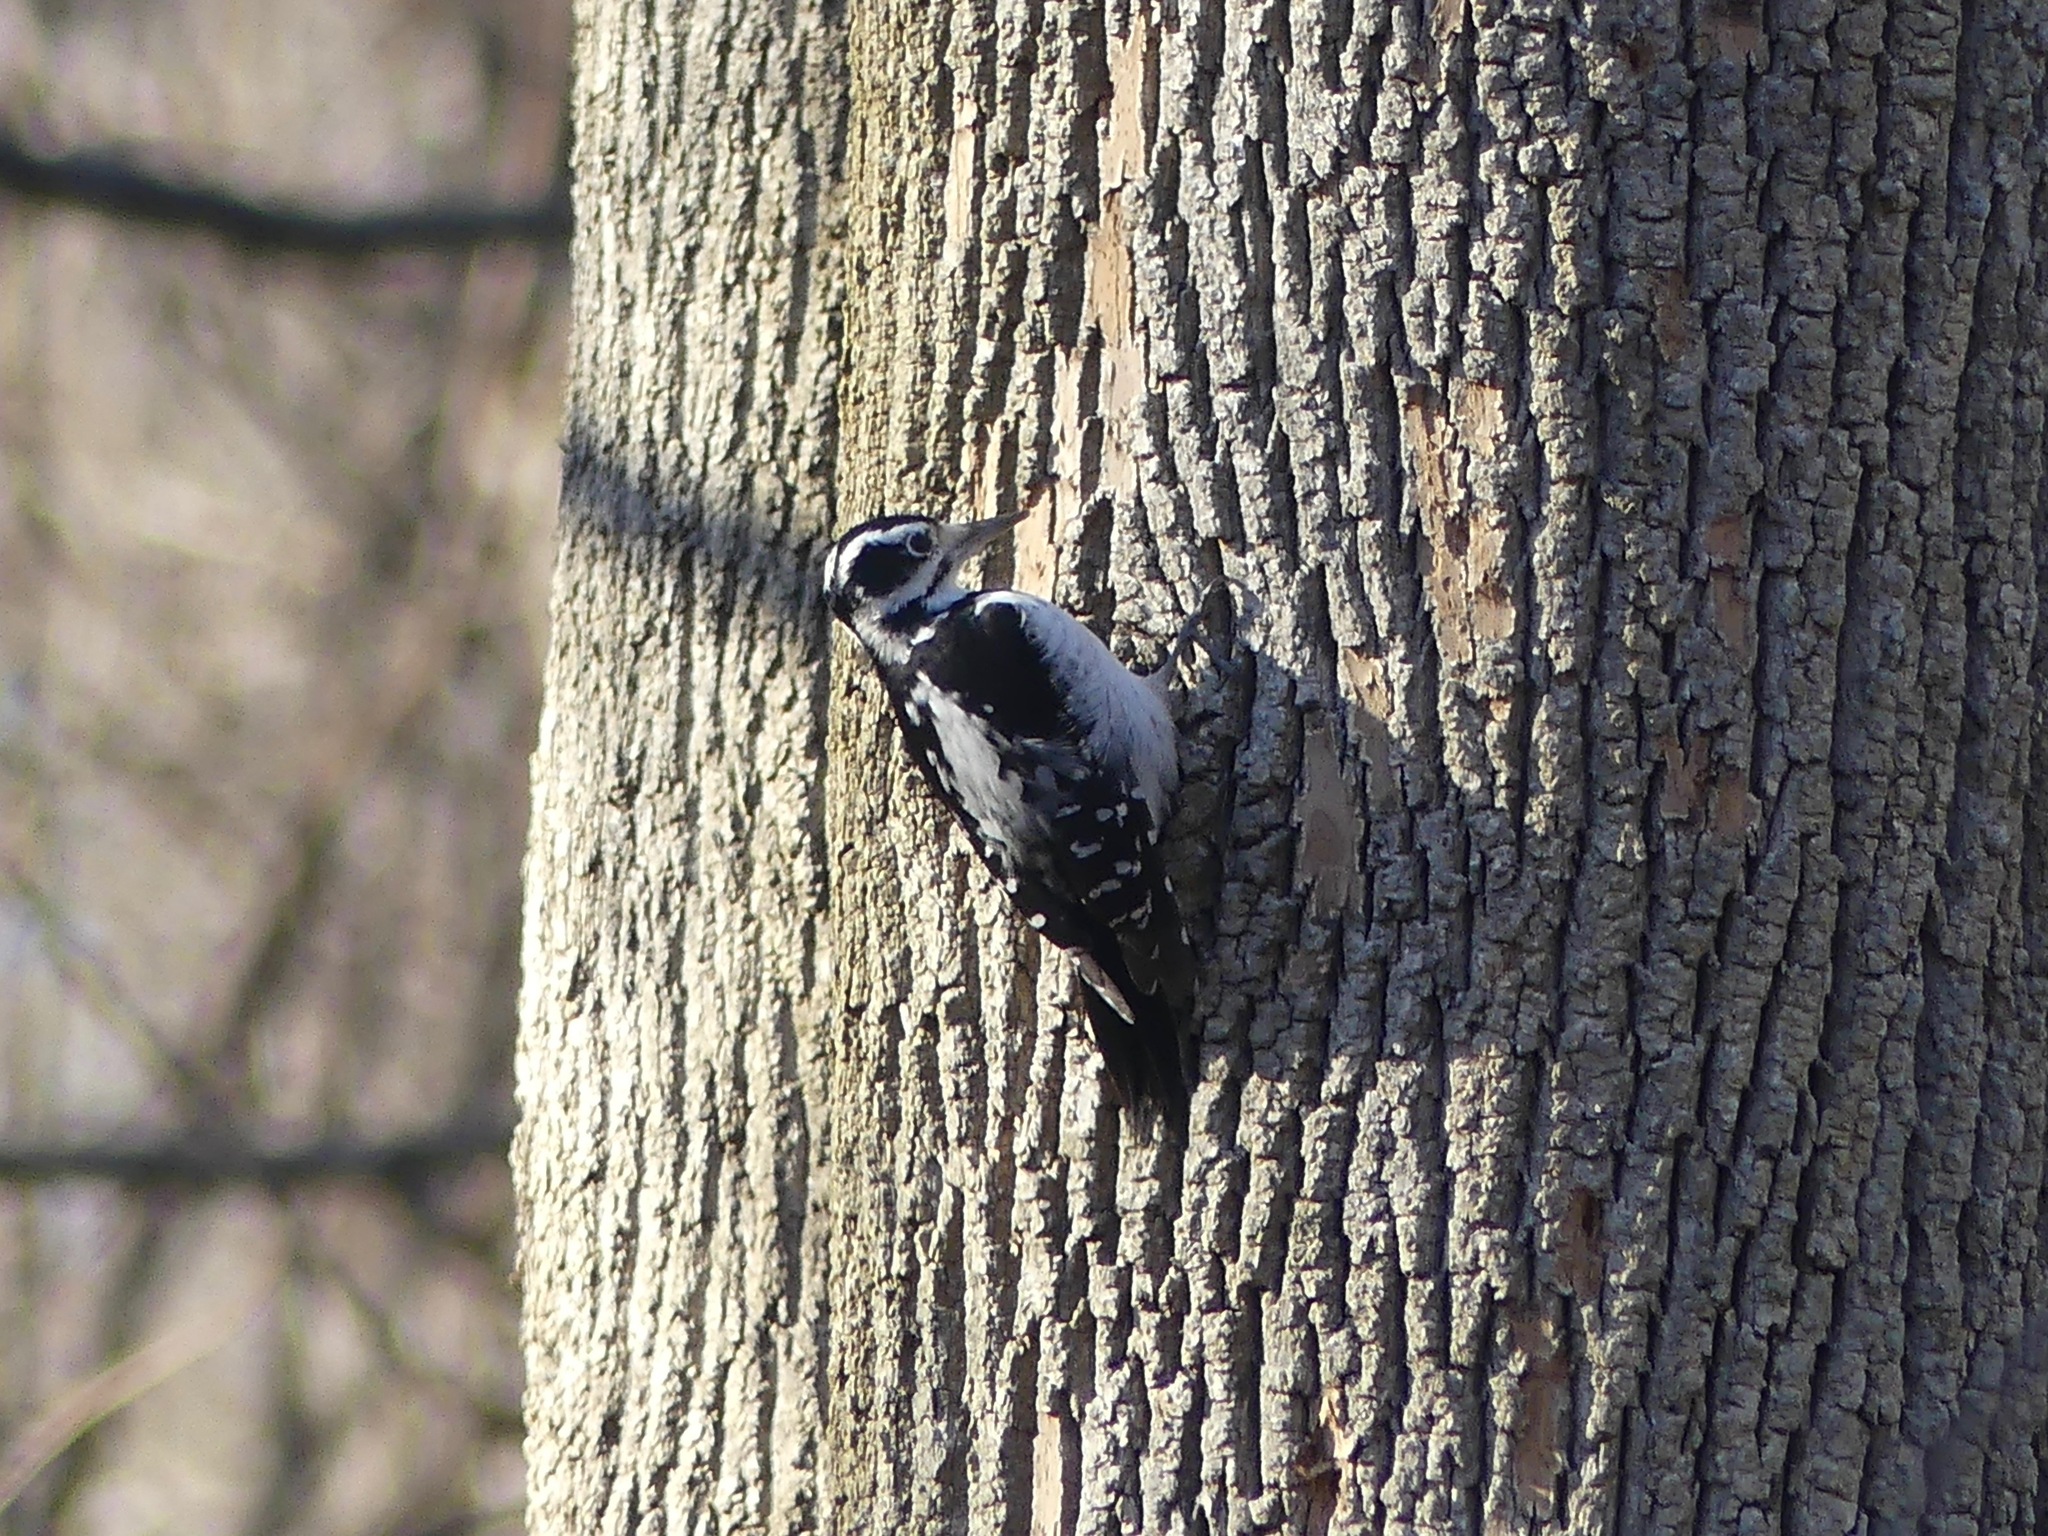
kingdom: Animalia
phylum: Chordata
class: Aves
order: Piciformes
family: Picidae
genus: Leuconotopicus
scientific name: Leuconotopicus villosus
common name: Hairy woodpecker
